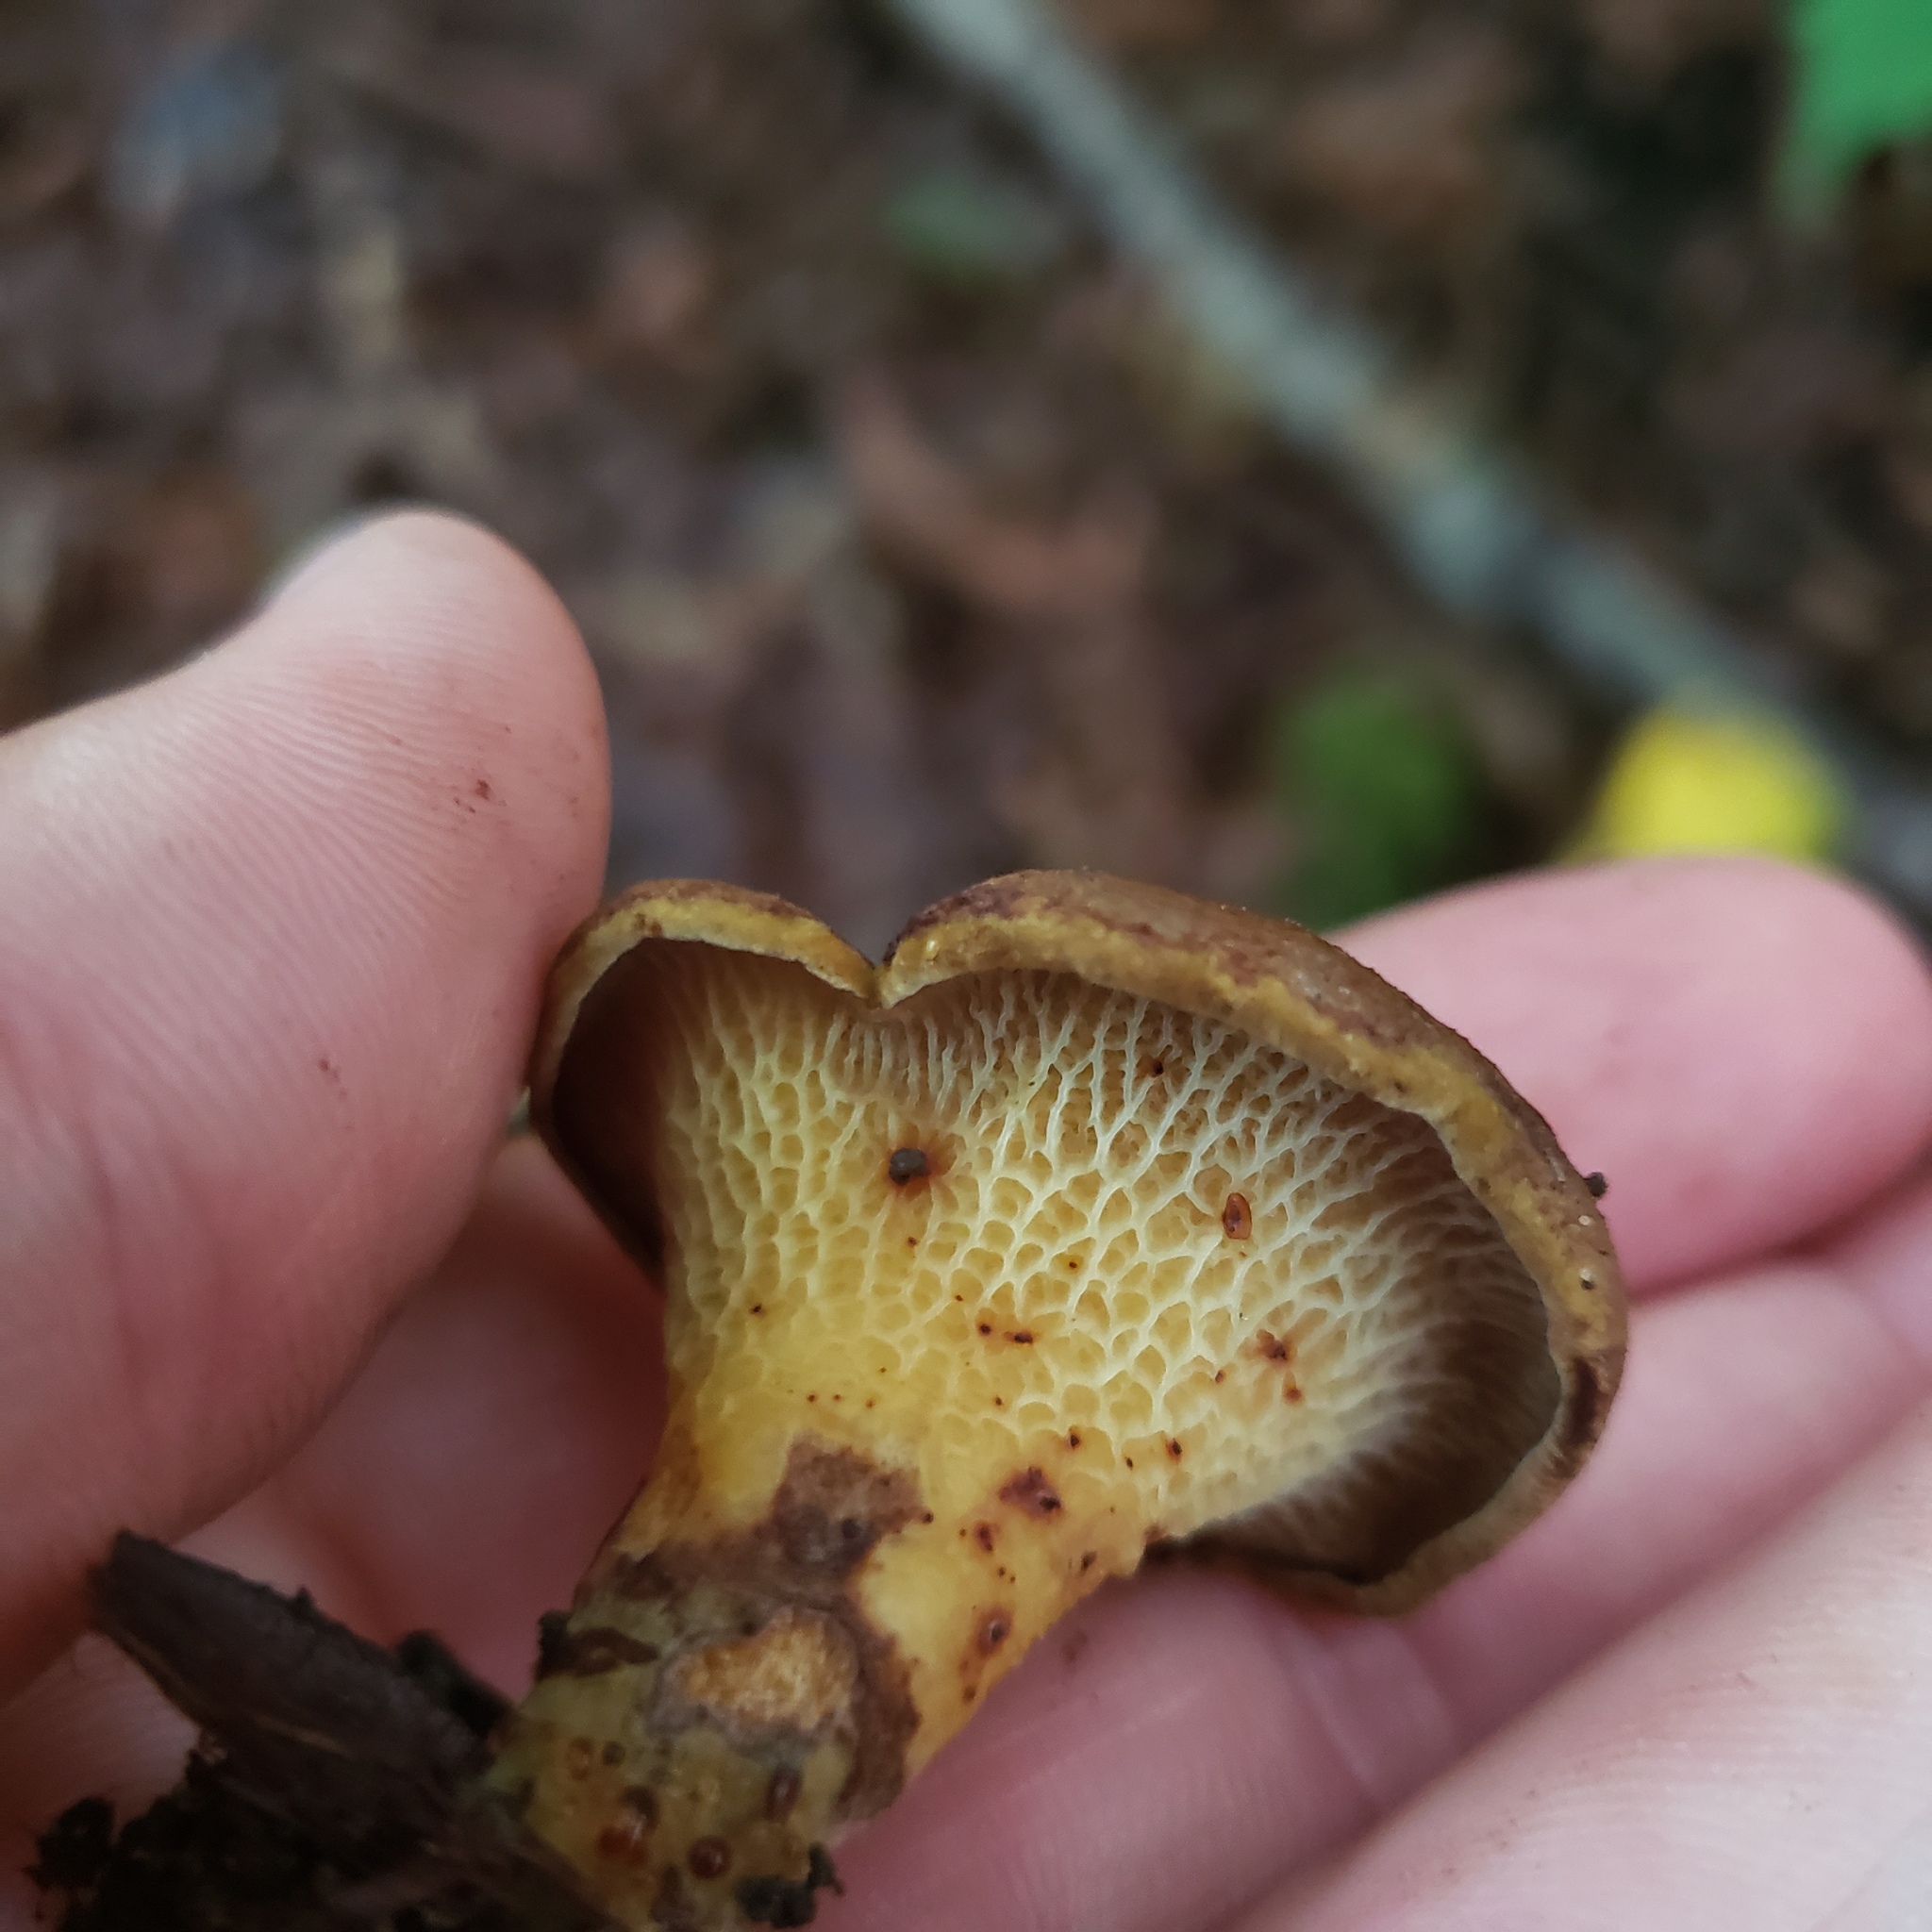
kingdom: Fungi
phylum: Basidiomycota
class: Agaricomycetes
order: Boletales
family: Boletinellaceae
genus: Boletinellus
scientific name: Boletinellus merulioides
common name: Ash tree bolete
